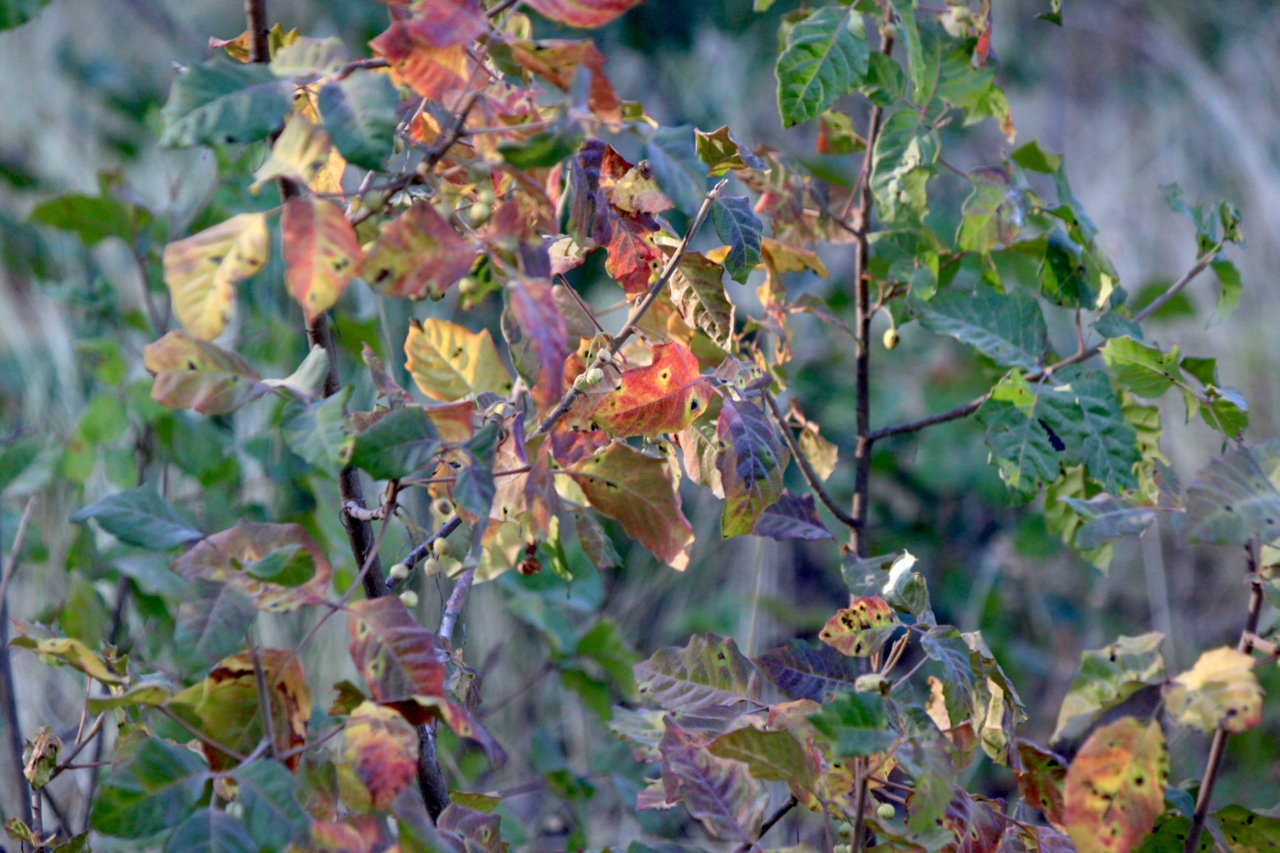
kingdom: Plantae
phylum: Tracheophyta
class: Magnoliopsida
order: Sapindales
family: Anacardiaceae
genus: Toxicodendron
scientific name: Toxicodendron diversilobum
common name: Pacific poison-oak
